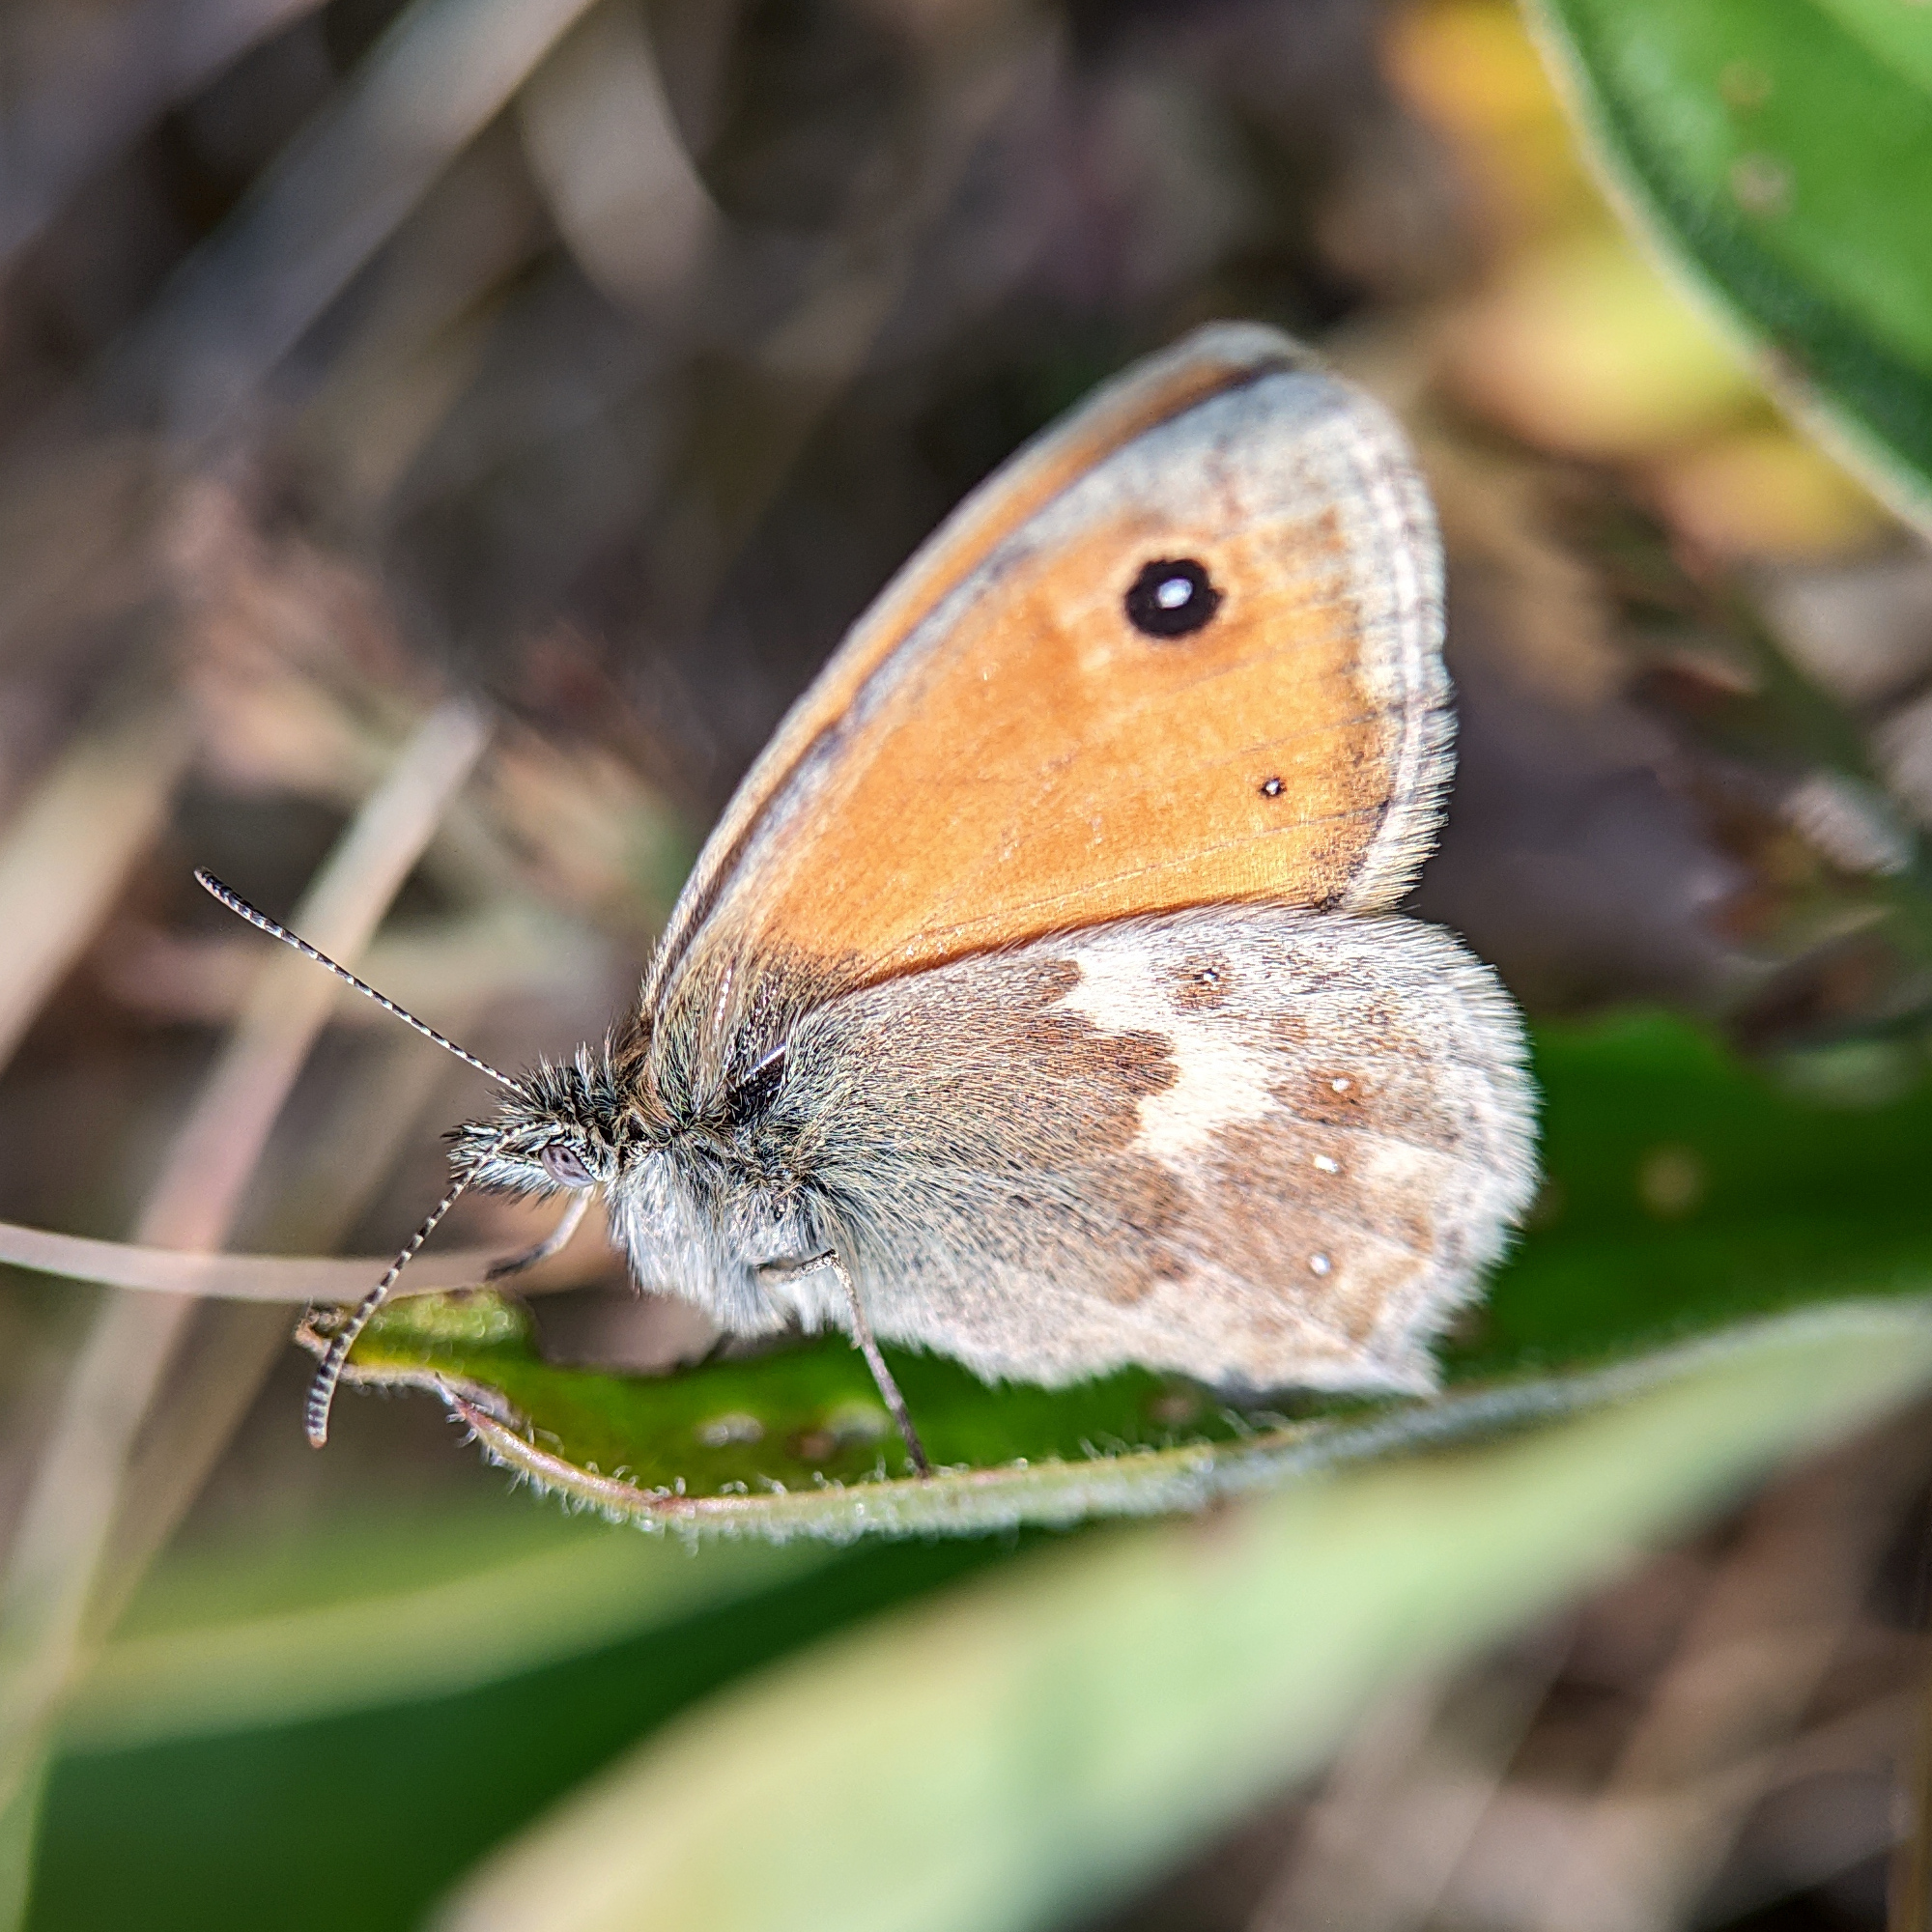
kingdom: Animalia
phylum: Arthropoda
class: Insecta
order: Lepidoptera
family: Nymphalidae
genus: Coenonympha
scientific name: Coenonympha pamphilus
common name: Small heath
